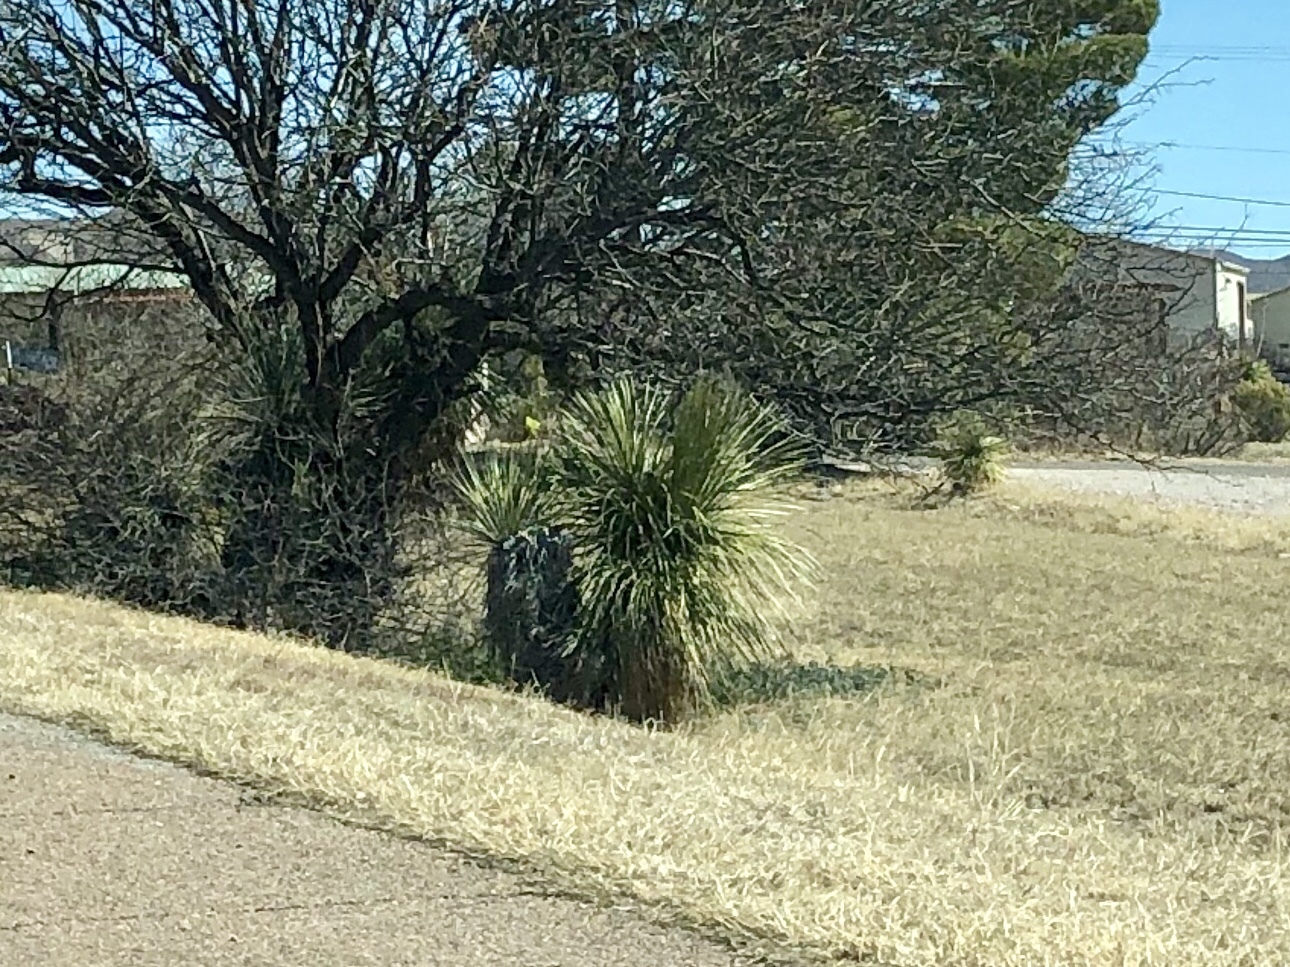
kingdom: Plantae
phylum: Tracheophyta
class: Liliopsida
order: Asparagales
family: Asparagaceae
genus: Yucca
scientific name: Yucca elata
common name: Palmella
